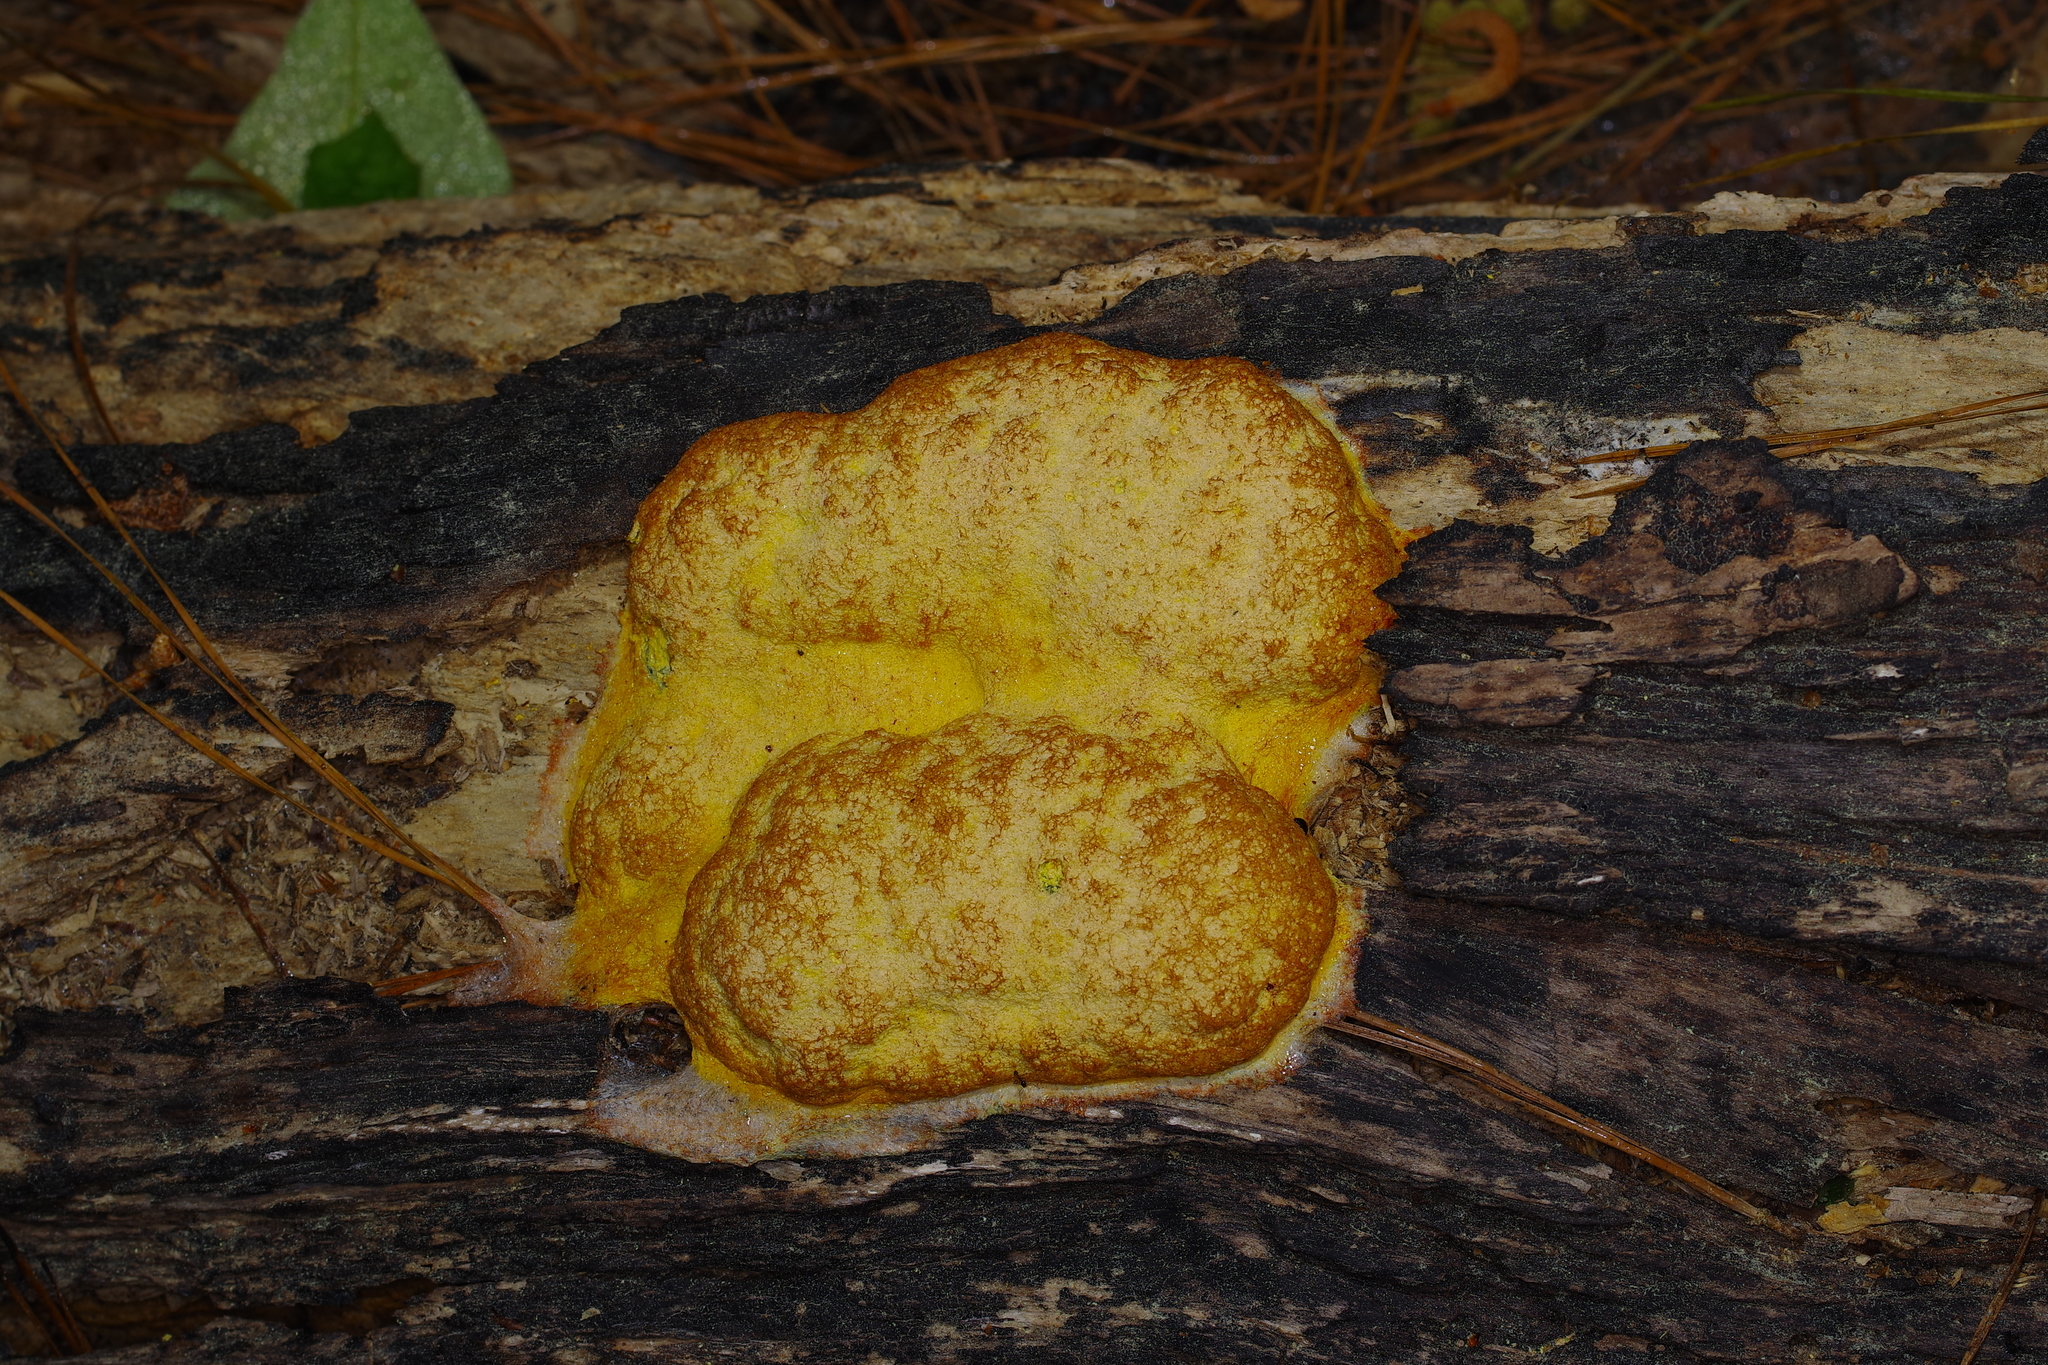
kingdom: Protozoa
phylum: Mycetozoa
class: Myxomycetes
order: Physarales
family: Physaraceae
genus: Fuligo
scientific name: Fuligo septica
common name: Dog vomit slime mold
